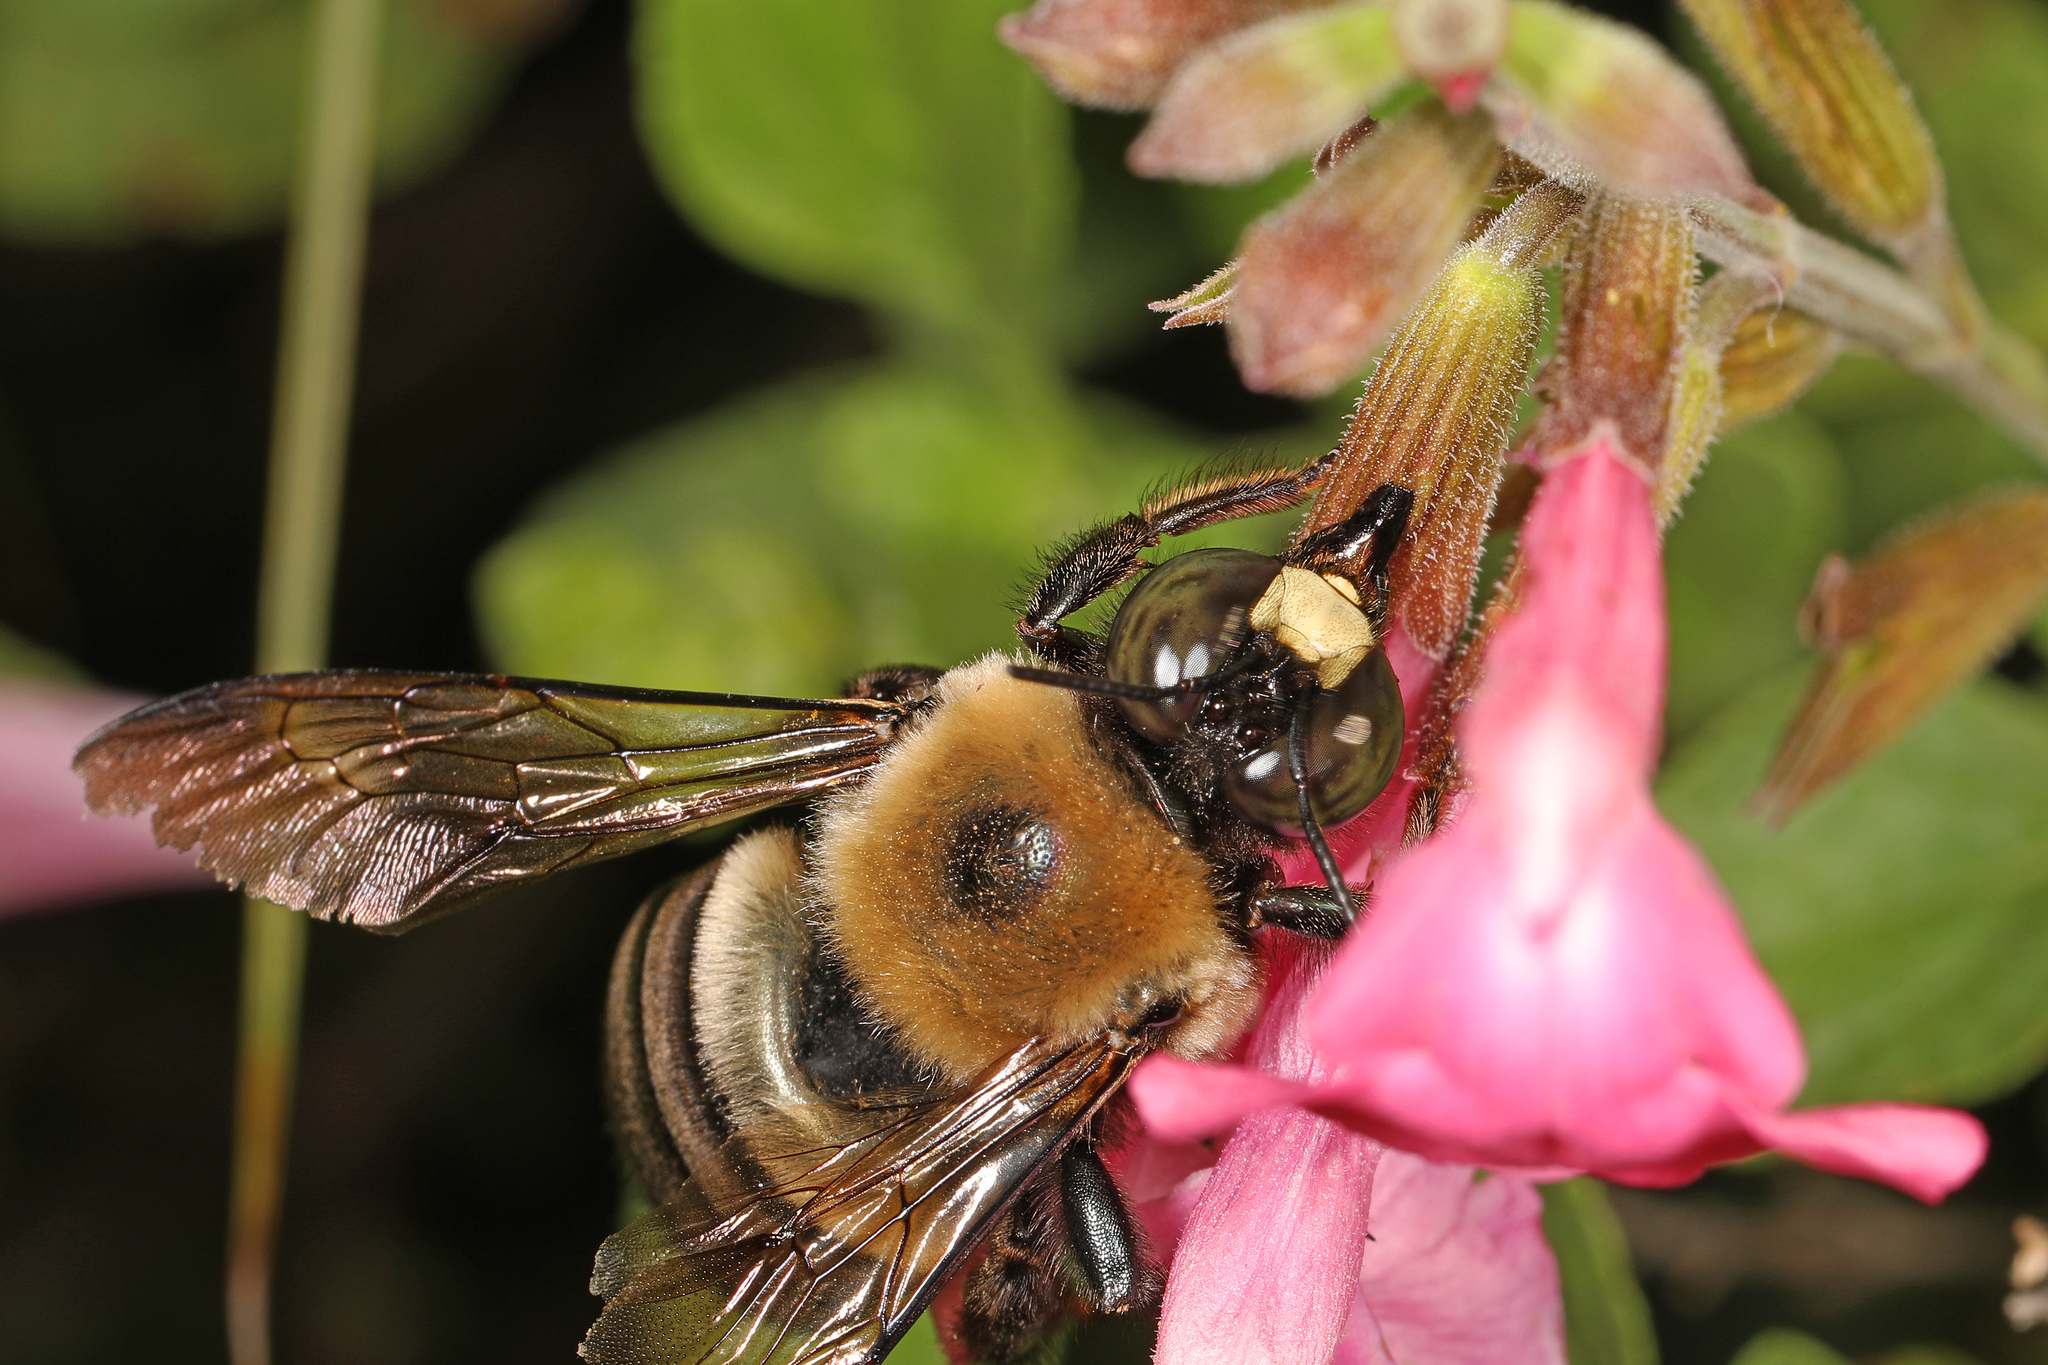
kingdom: Animalia
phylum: Arthropoda
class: Insecta
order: Hymenoptera
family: Apidae
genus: Xylocopa
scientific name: Xylocopa virginica
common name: Carpenter bee
